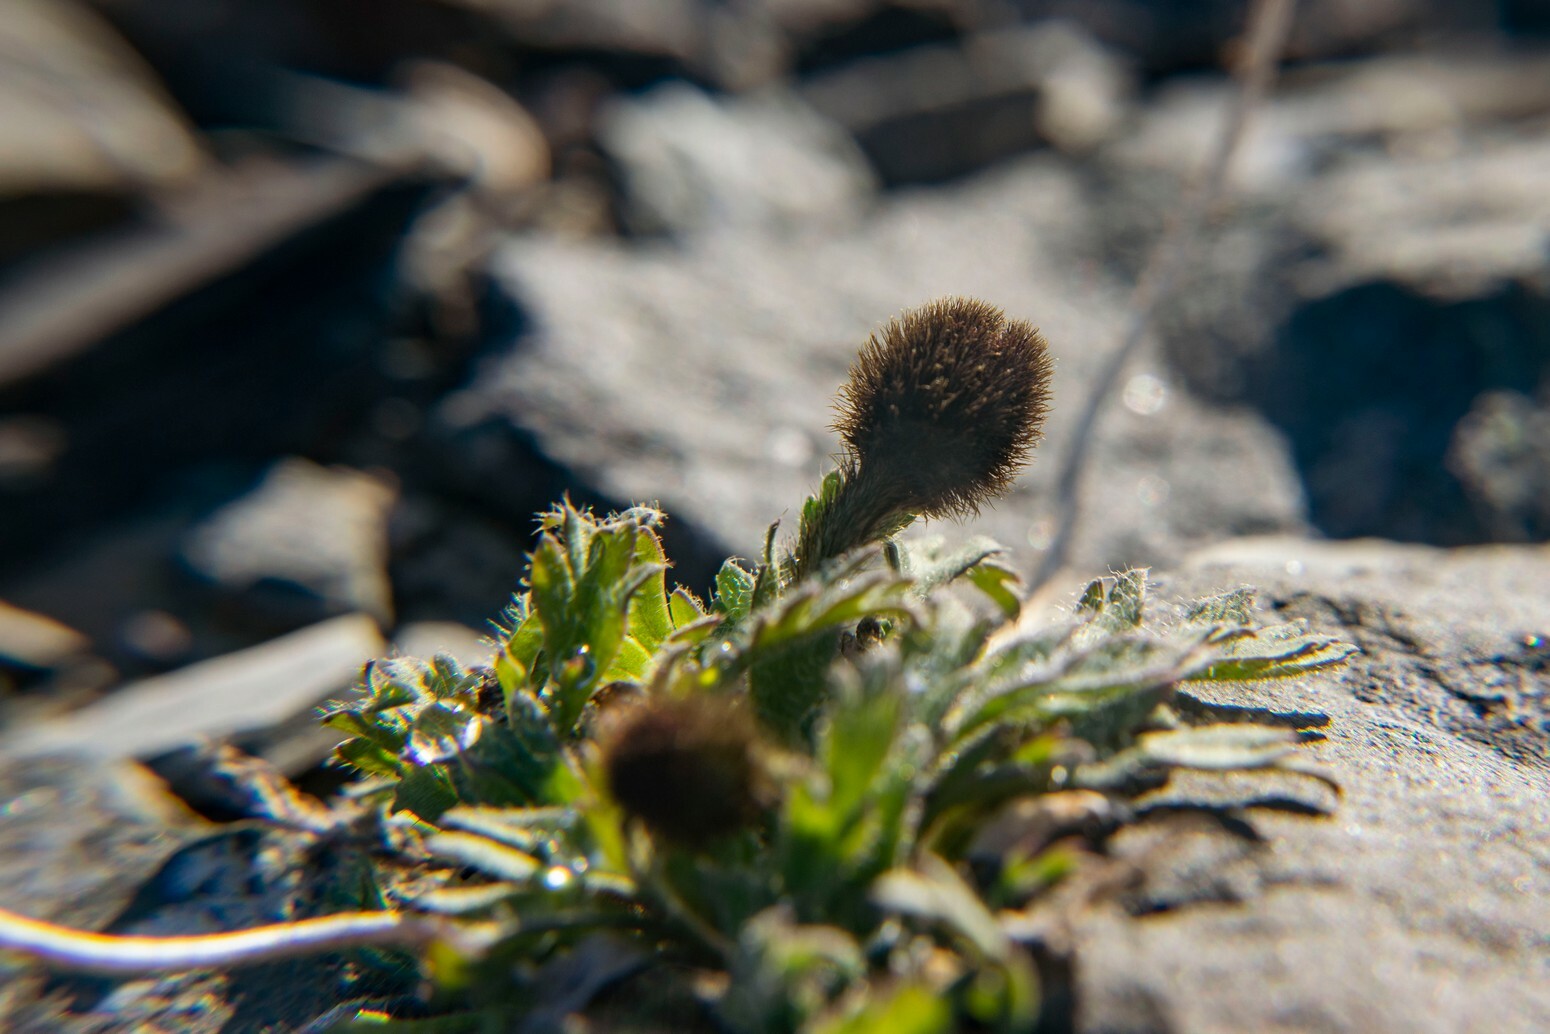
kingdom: Plantae
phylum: Tracheophyta
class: Magnoliopsida
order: Ranunculales
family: Papaveraceae
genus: Papaver
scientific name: Papaver radicatum
